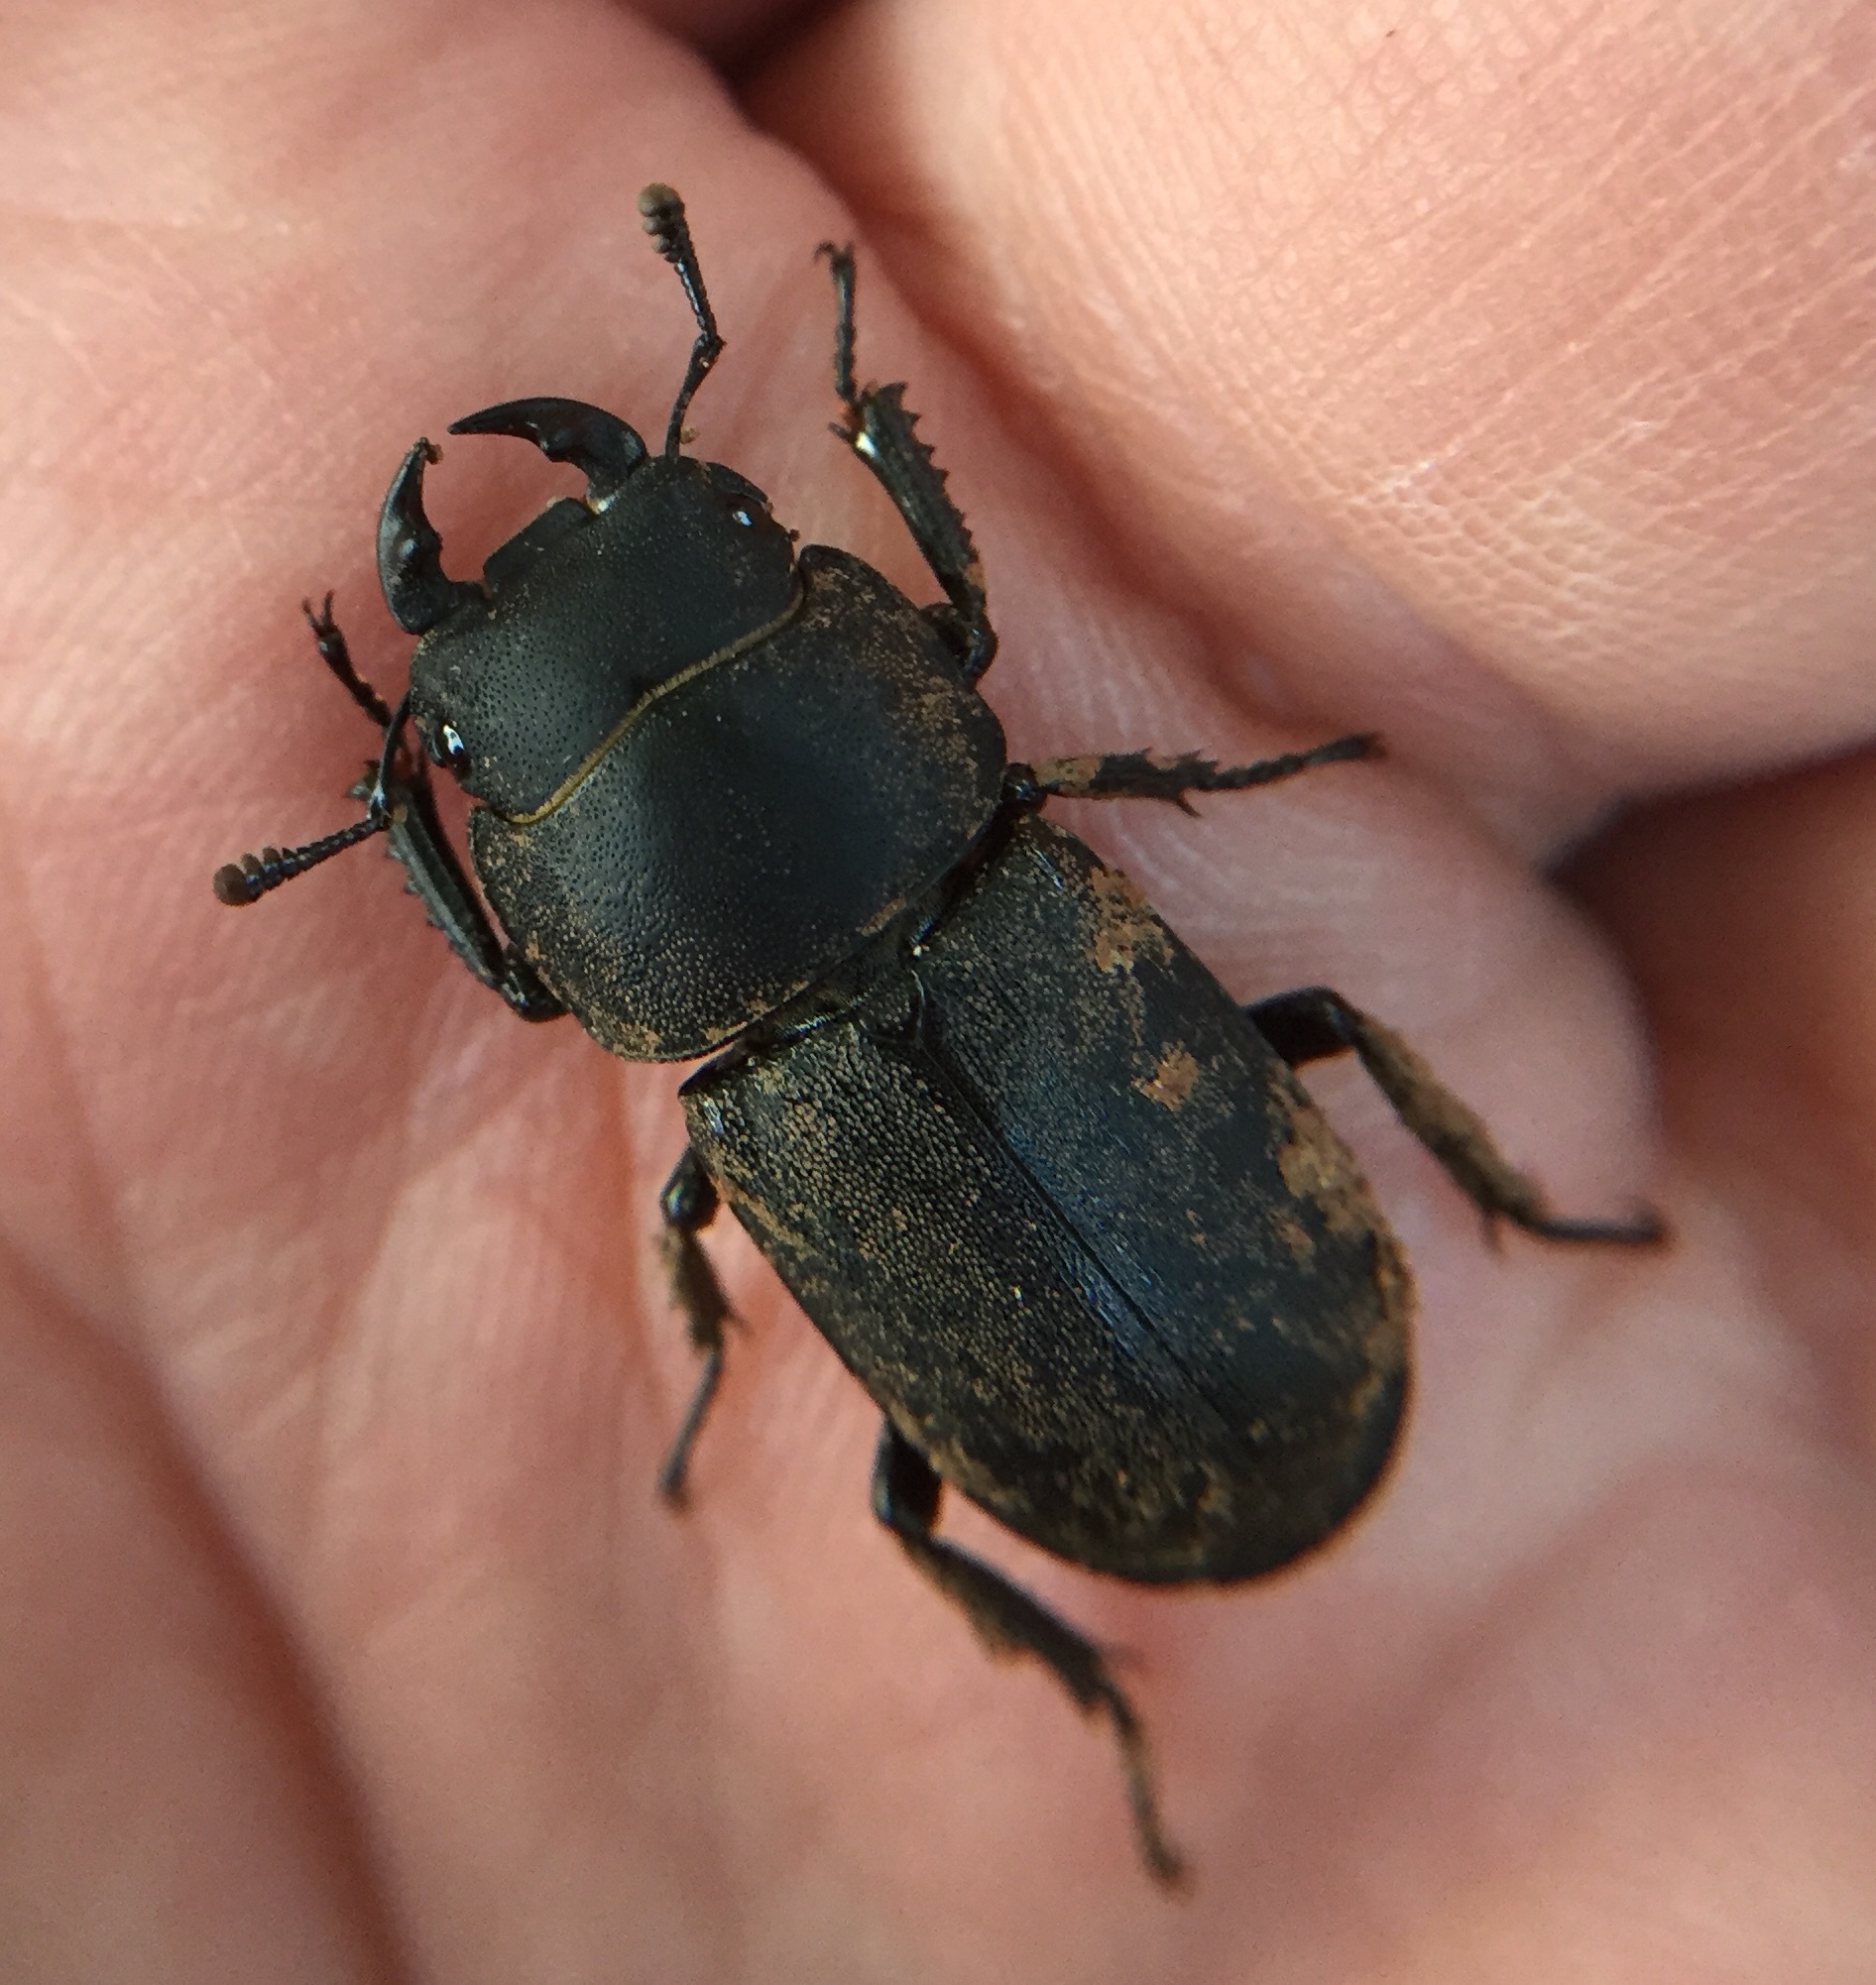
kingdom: Animalia
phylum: Arthropoda
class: Insecta
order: Coleoptera
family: Lucanidae
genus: Dorcus
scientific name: Dorcus parallelipipedus
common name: Lesser stag beetle
